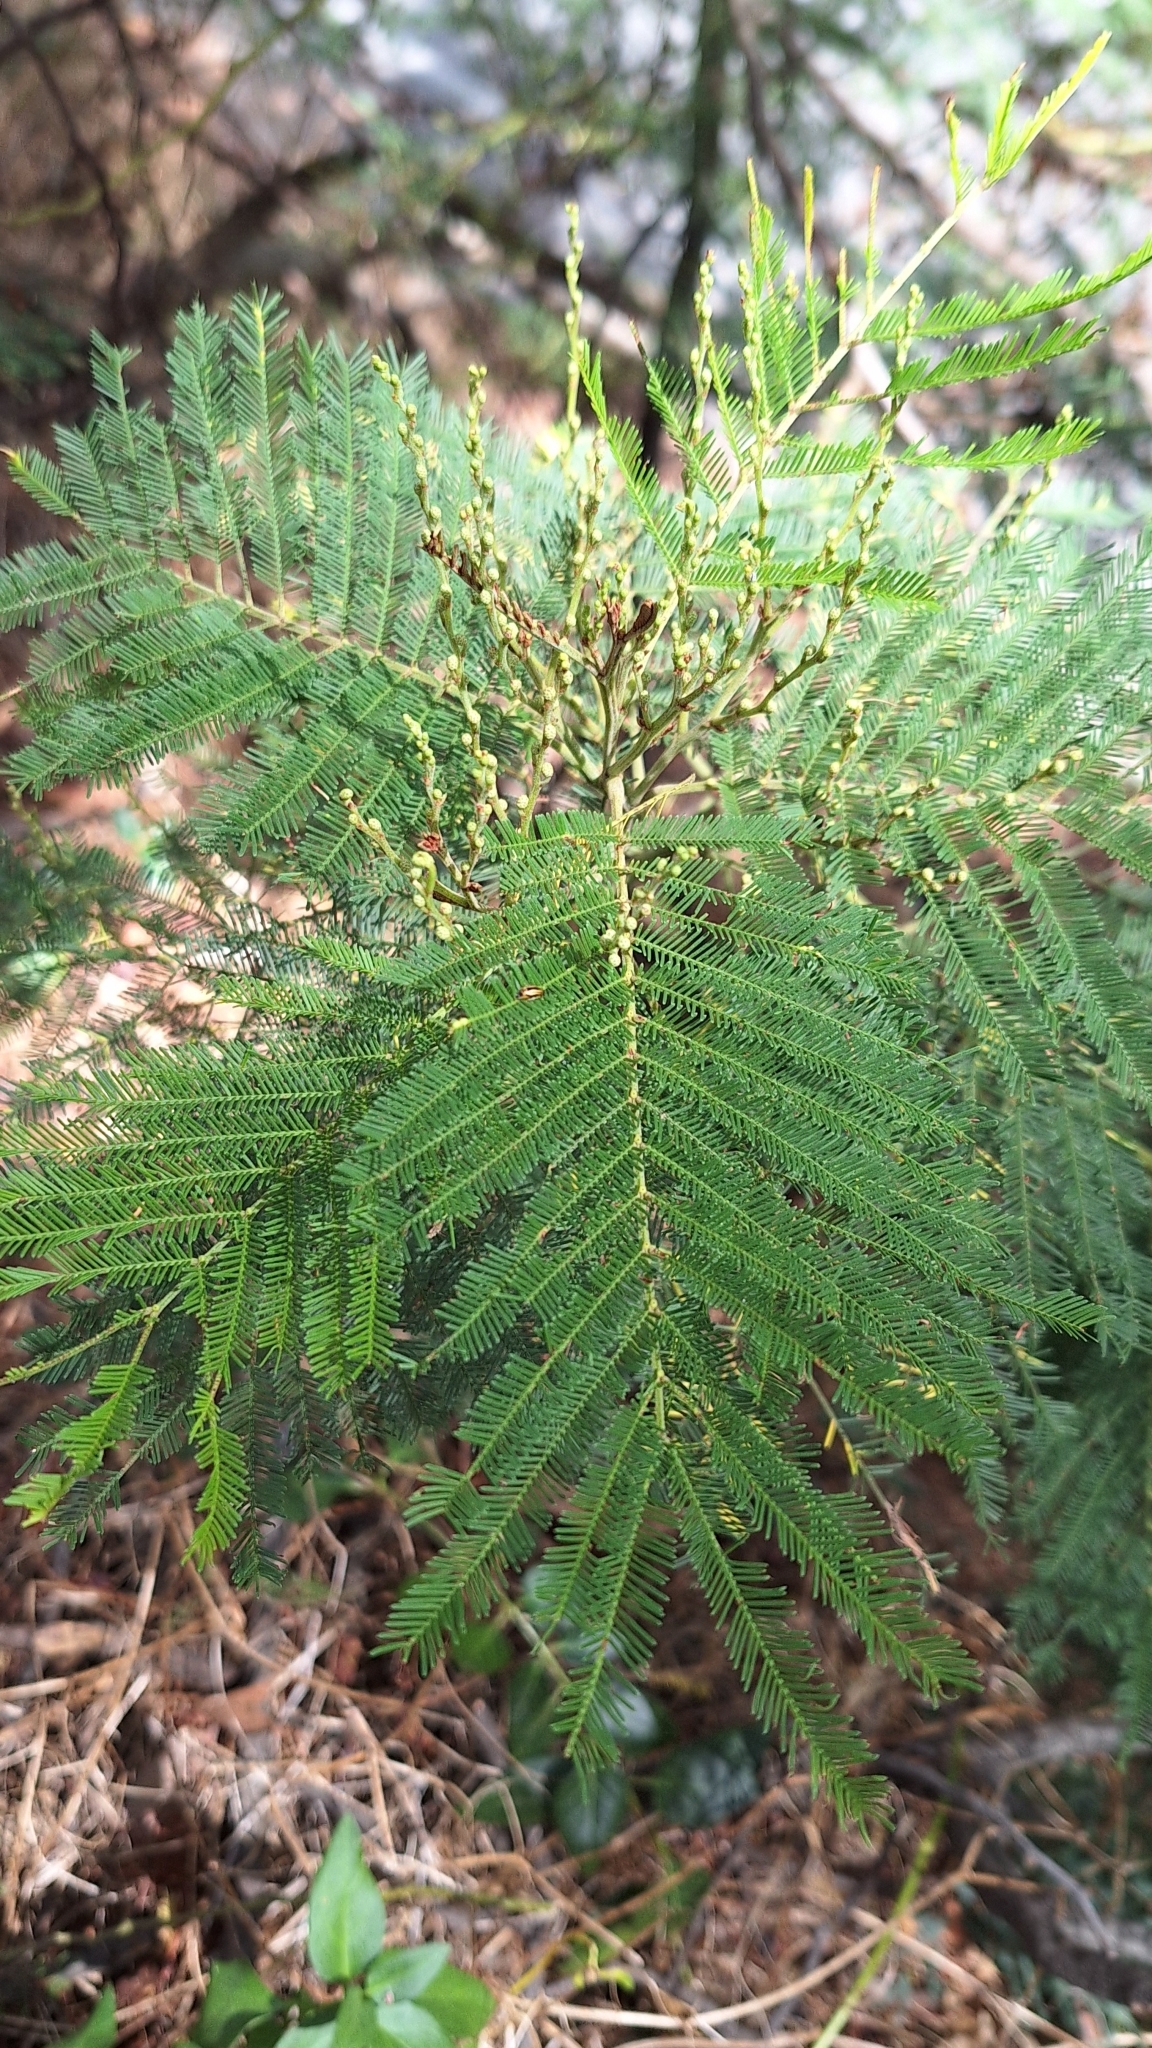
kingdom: Plantae
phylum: Tracheophyta
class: Magnoliopsida
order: Fabales
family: Fabaceae
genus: Acacia
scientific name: Acacia dealbata
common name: Silver wattle
